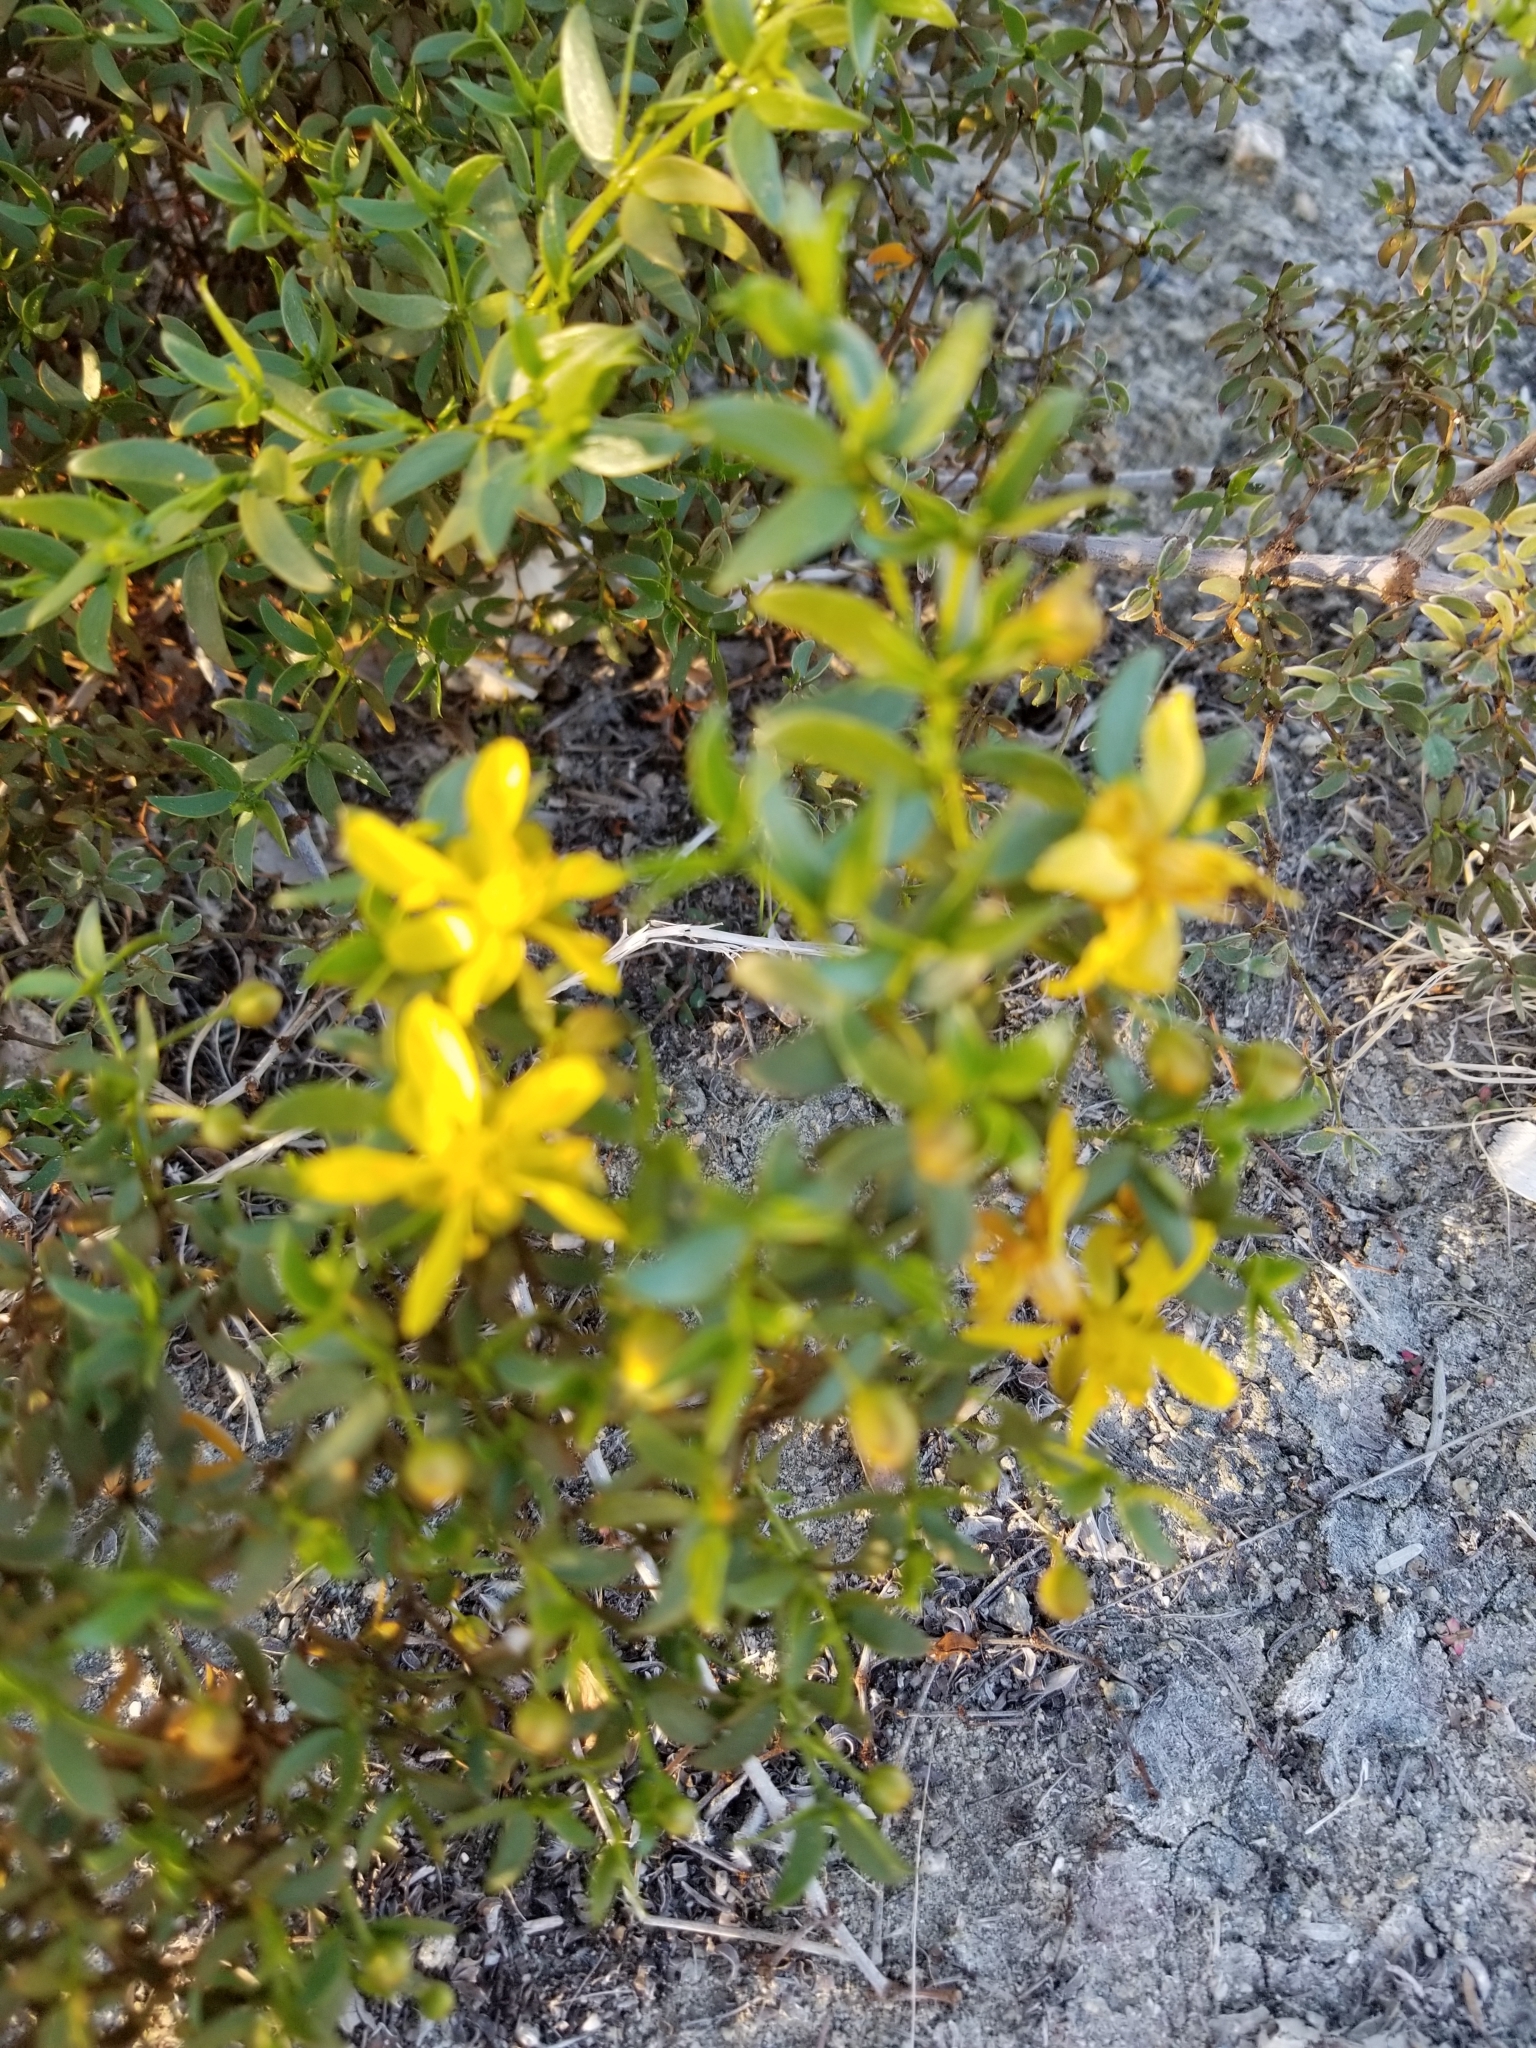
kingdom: Plantae
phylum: Tracheophyta
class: Magnoliopsida
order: Zygophyllales
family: Zygophyllaceae
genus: Larrea
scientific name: Larrea tridentata
